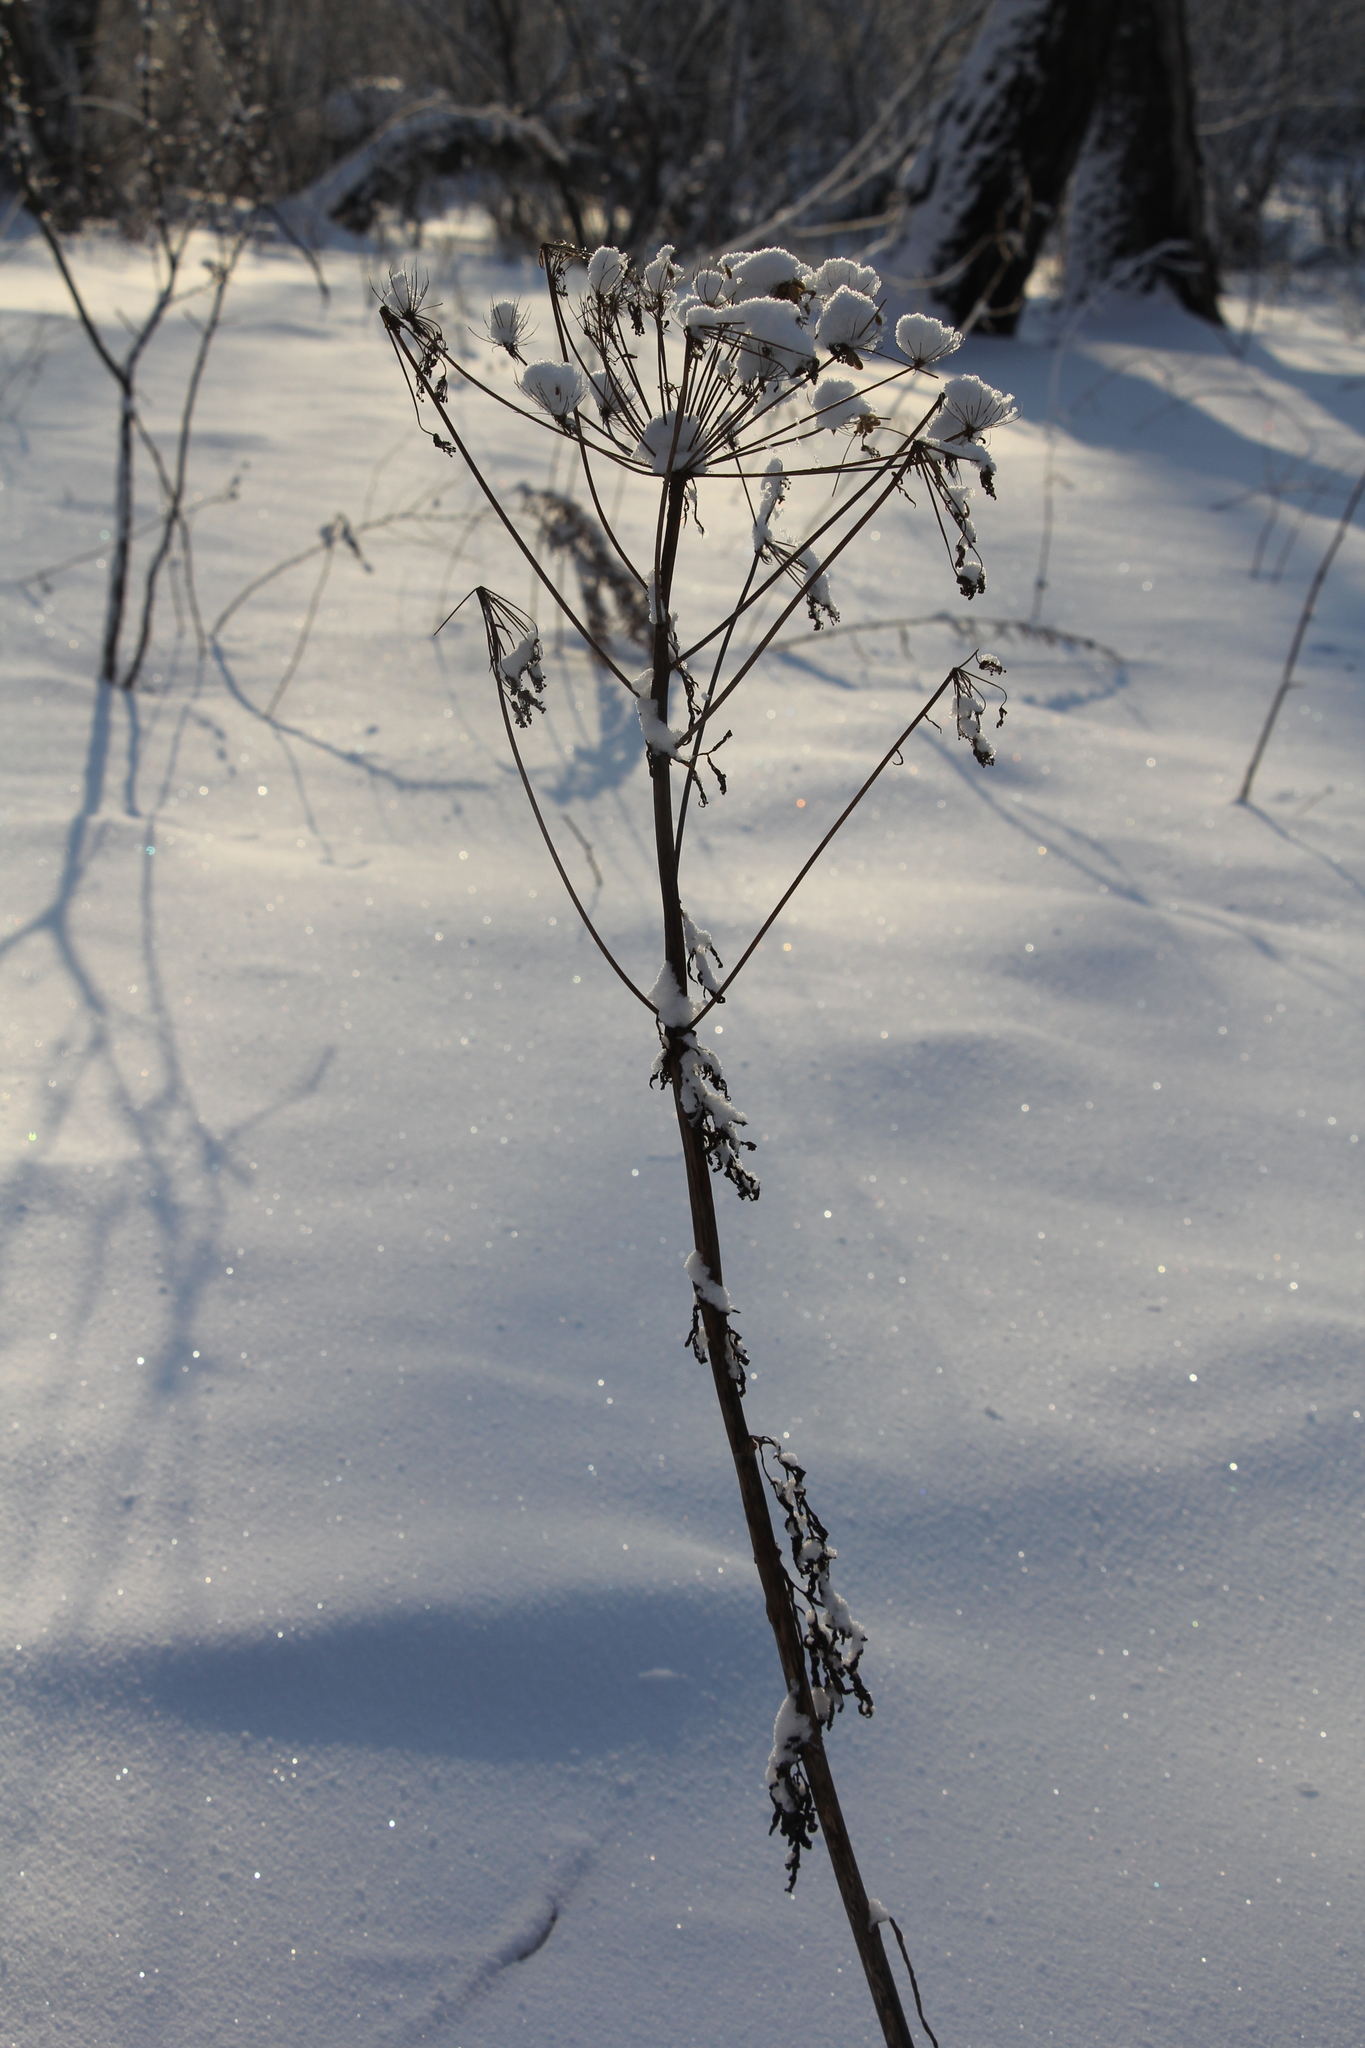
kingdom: Plantae
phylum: Tracheophyta
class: Magnoliopsida
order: Apiales
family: Apiaceae
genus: Pleurospermum
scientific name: Pleurospermum uralense
